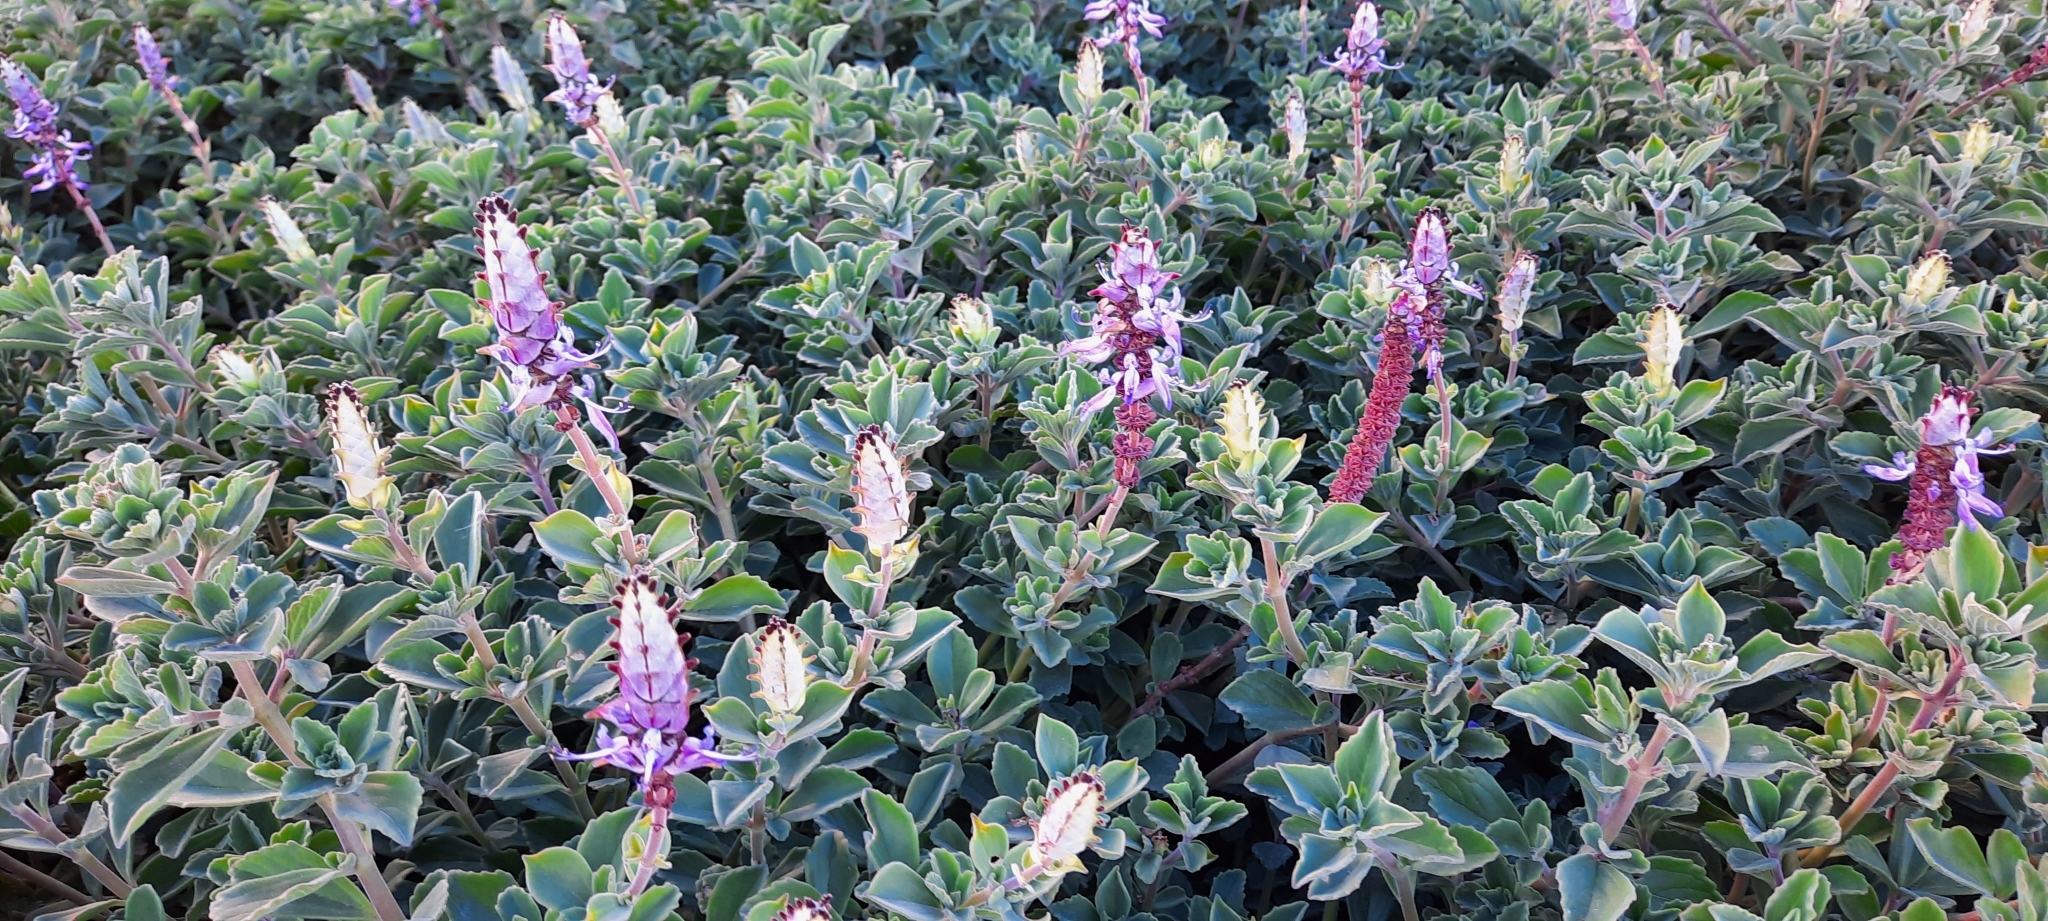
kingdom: Plantae
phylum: Tracheophyta
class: Magnoliopsida
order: Lamiales
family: Lamiaceae
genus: Coleus
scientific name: Coleus neochilus
